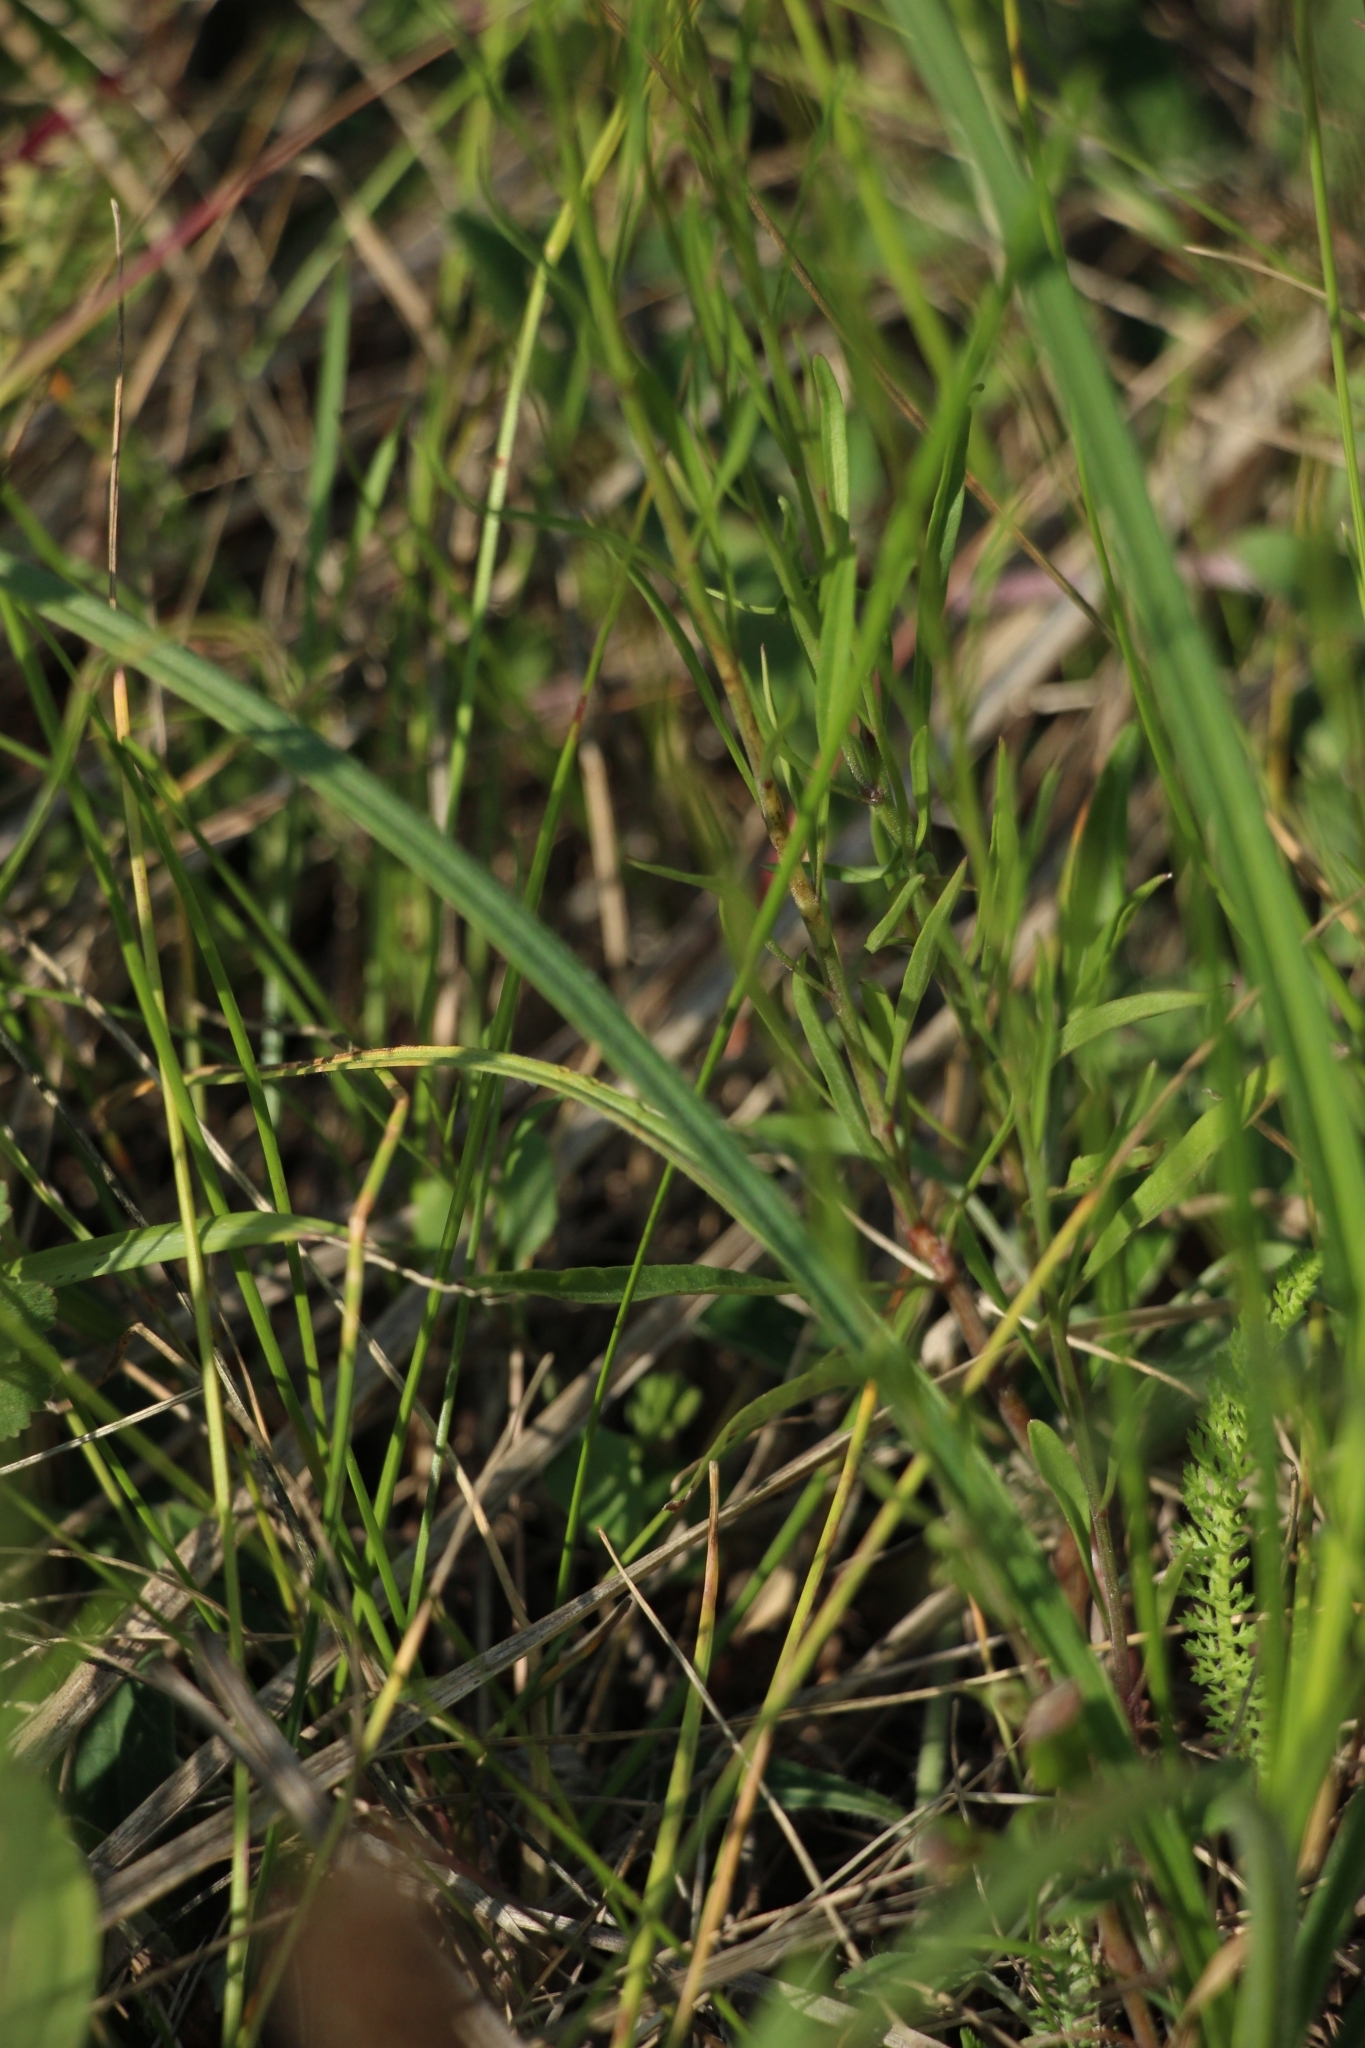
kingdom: Plantae
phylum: Tracheophyta
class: Magnoliopsida
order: Asterales
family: Campanulaceae
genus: Campanula
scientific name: Campanula rotundifolia
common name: Harebell
